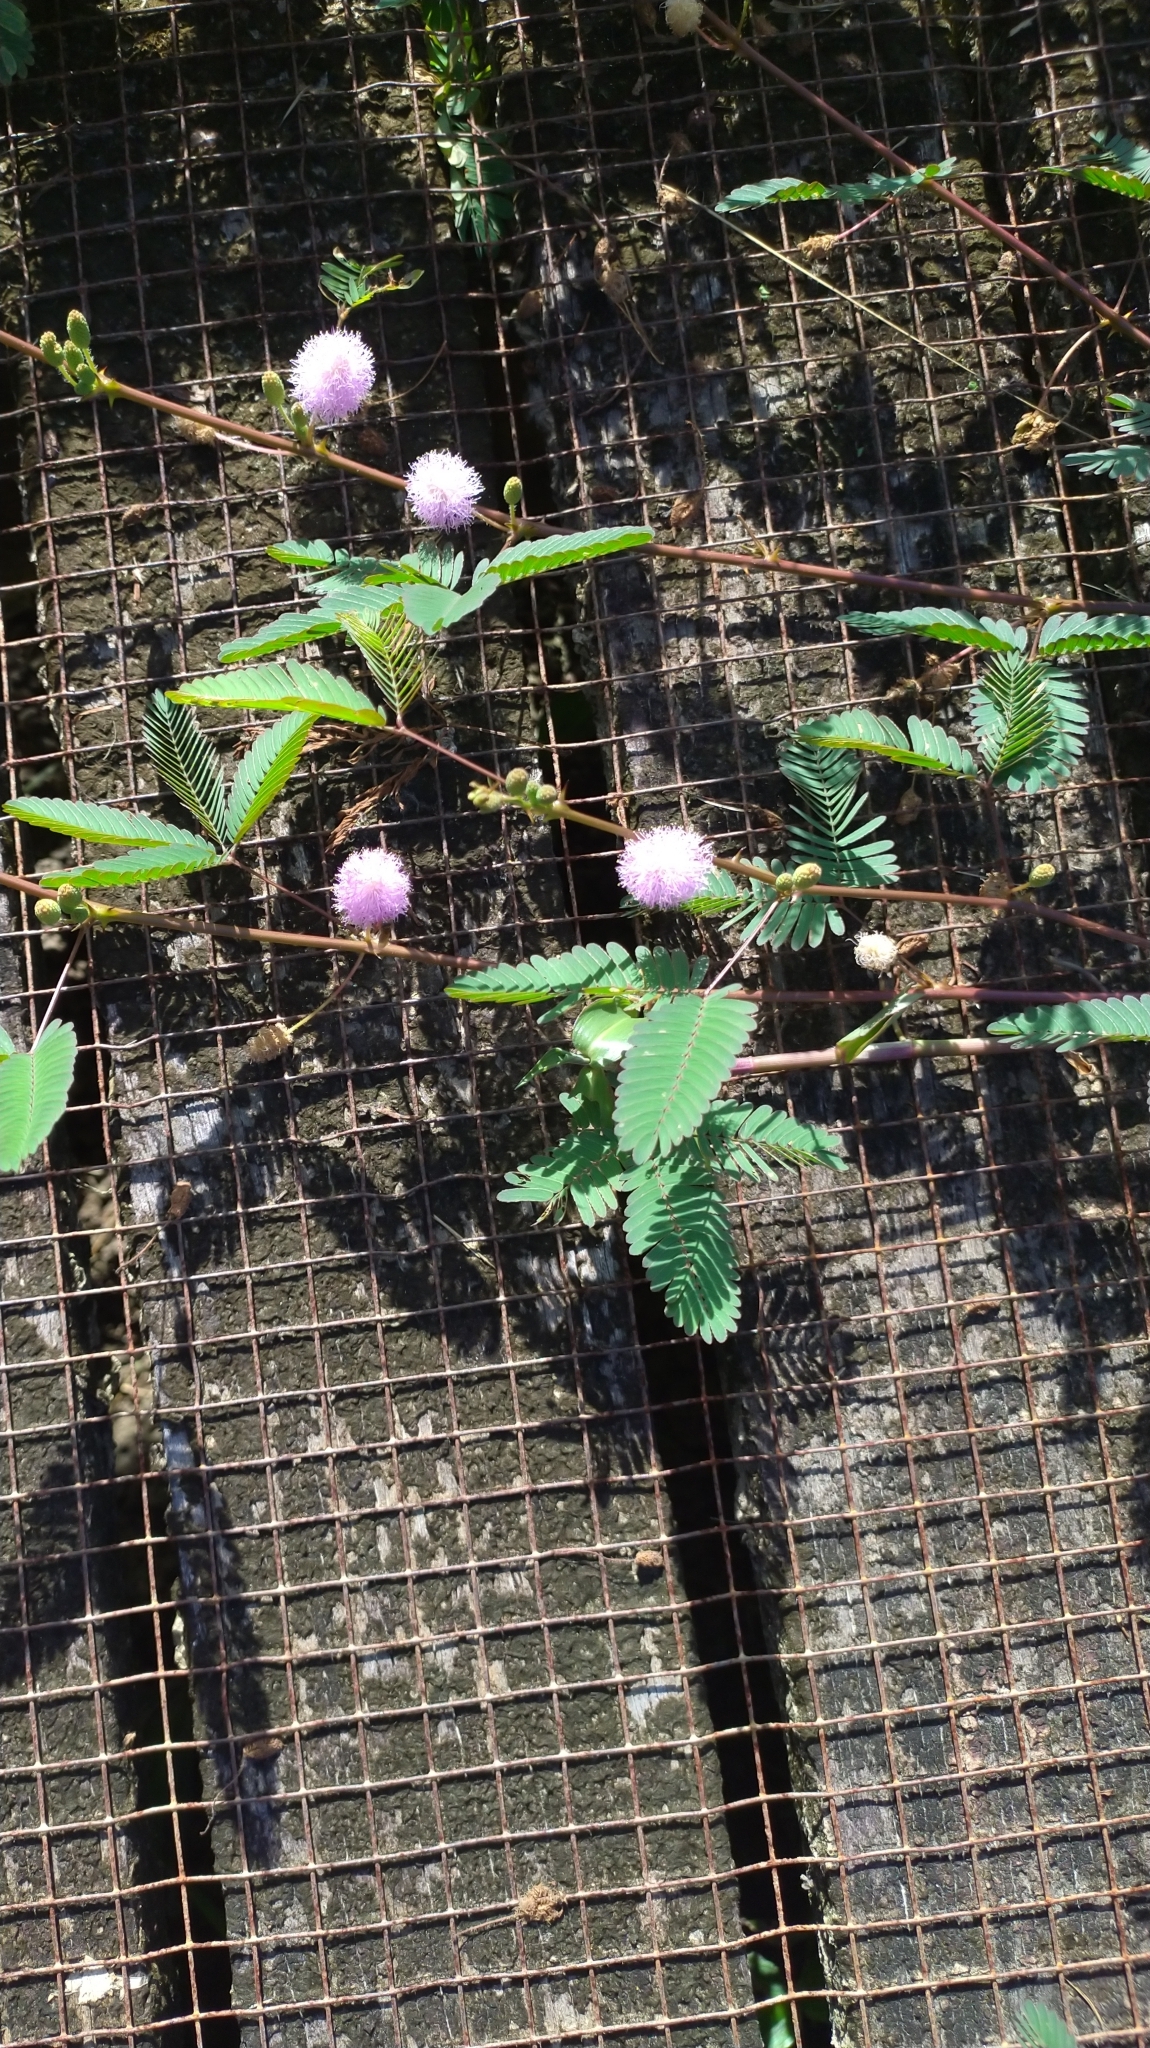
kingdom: Plantae
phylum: Tracheophyta
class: Magnoliopsida
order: Fabales
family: Fabaceae
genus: Mimosa
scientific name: Mimosa pudica
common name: Sensitive plant
